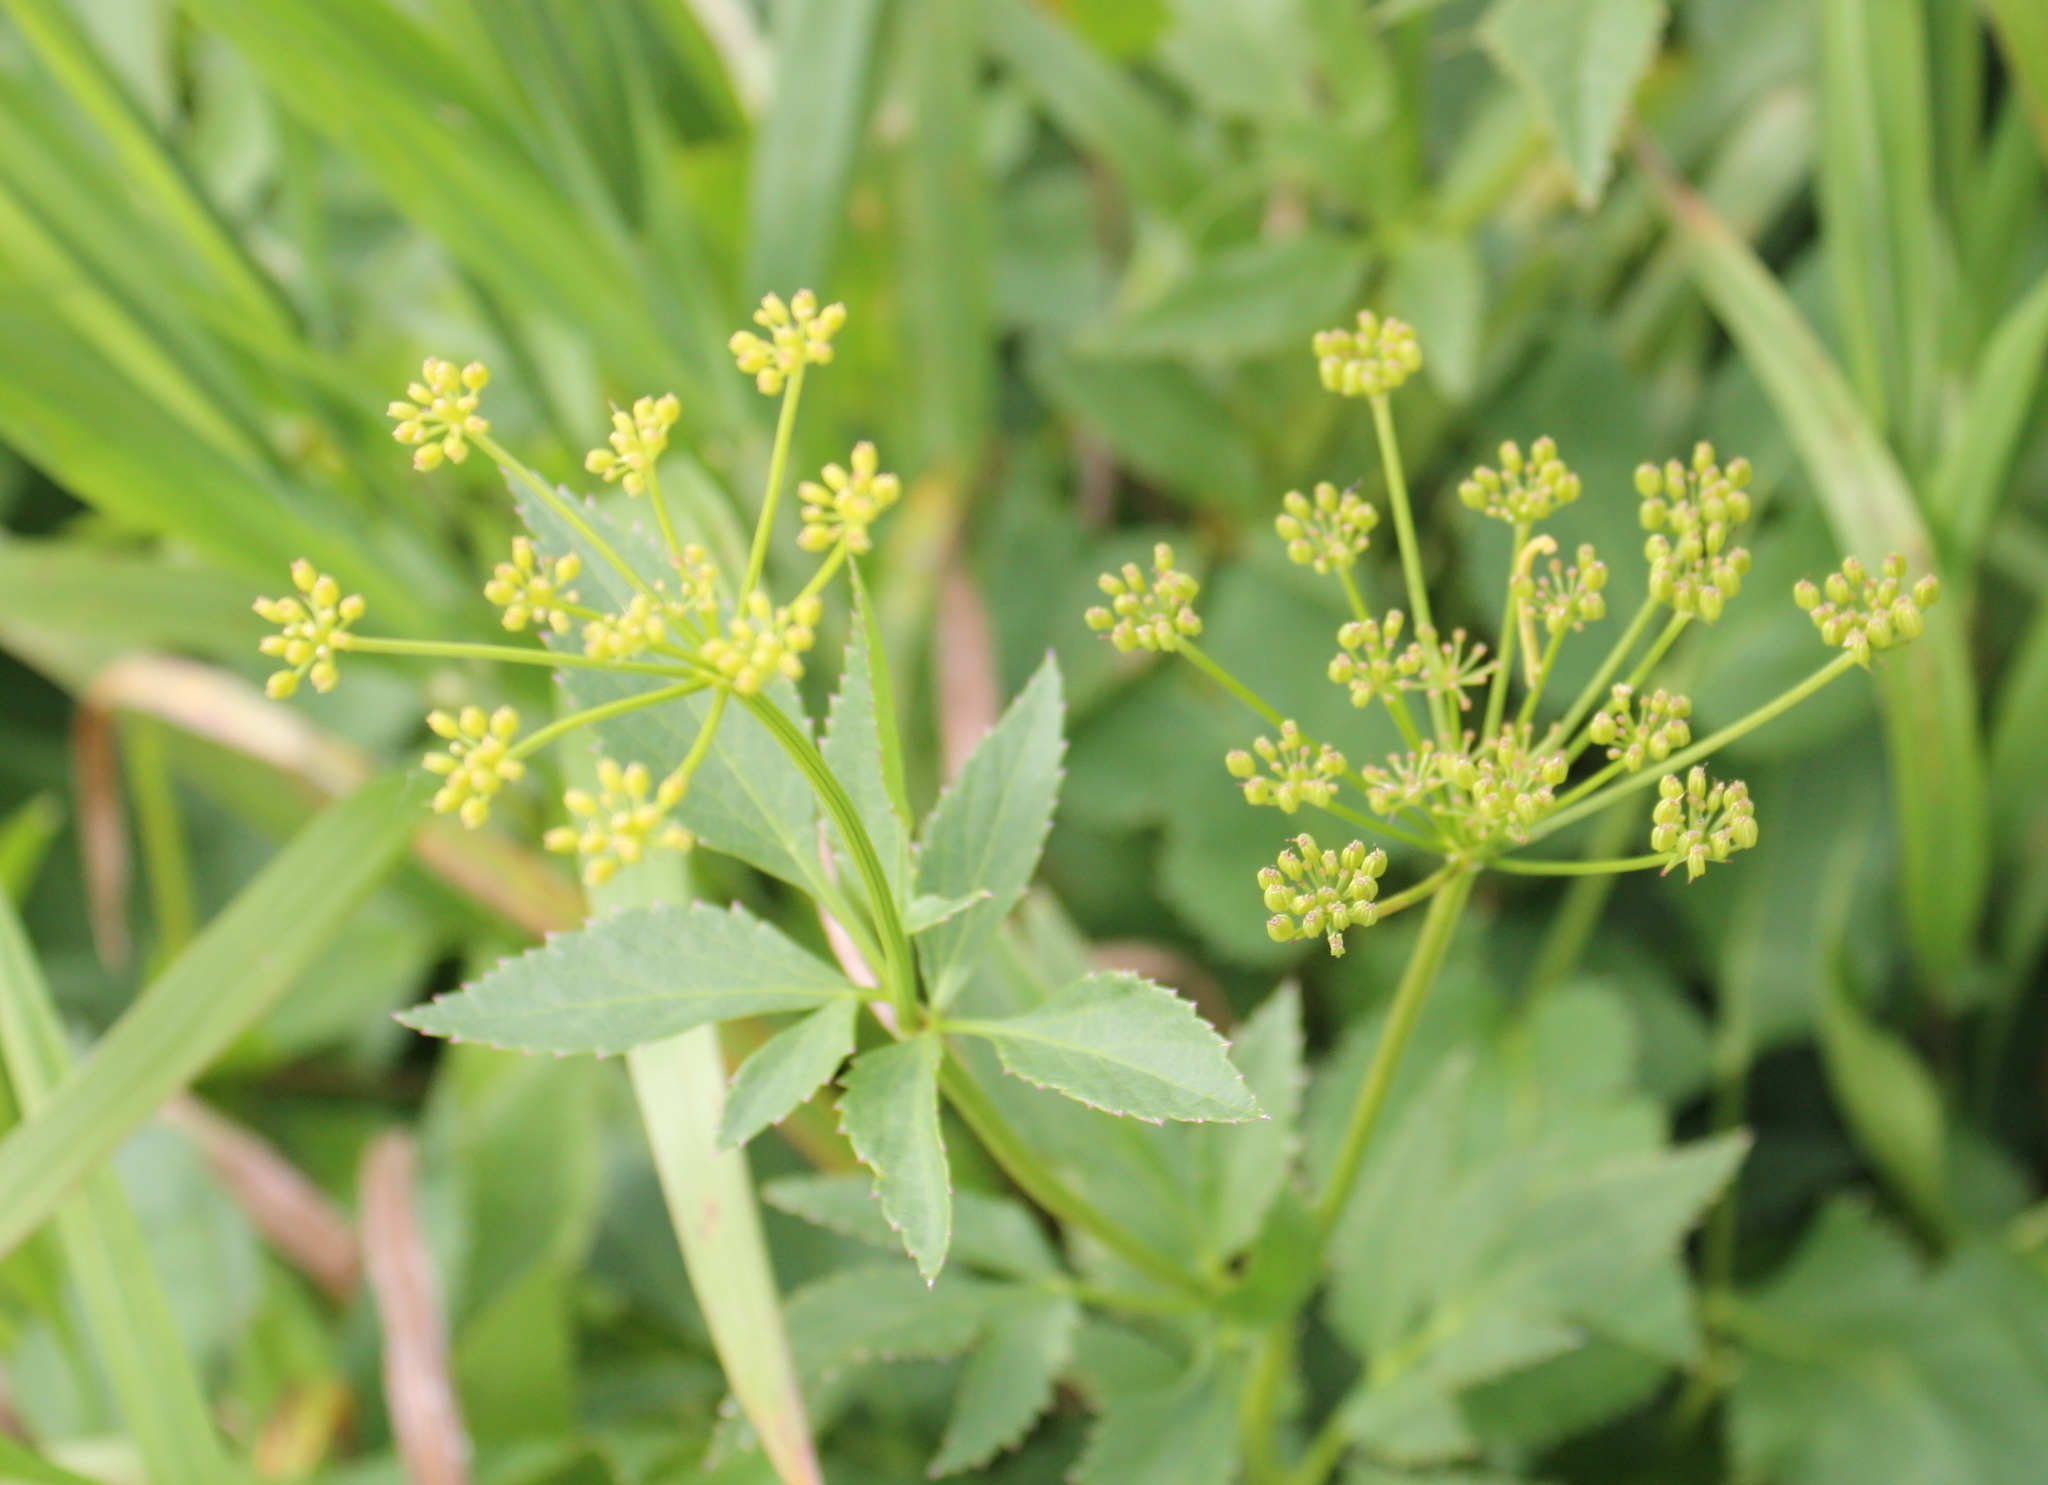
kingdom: Plantae
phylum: Tracheophyta
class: Magnoliopsida
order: Apiales
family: Apiaceae
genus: Zizia
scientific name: Zizia aurea
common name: Golden alexanders
